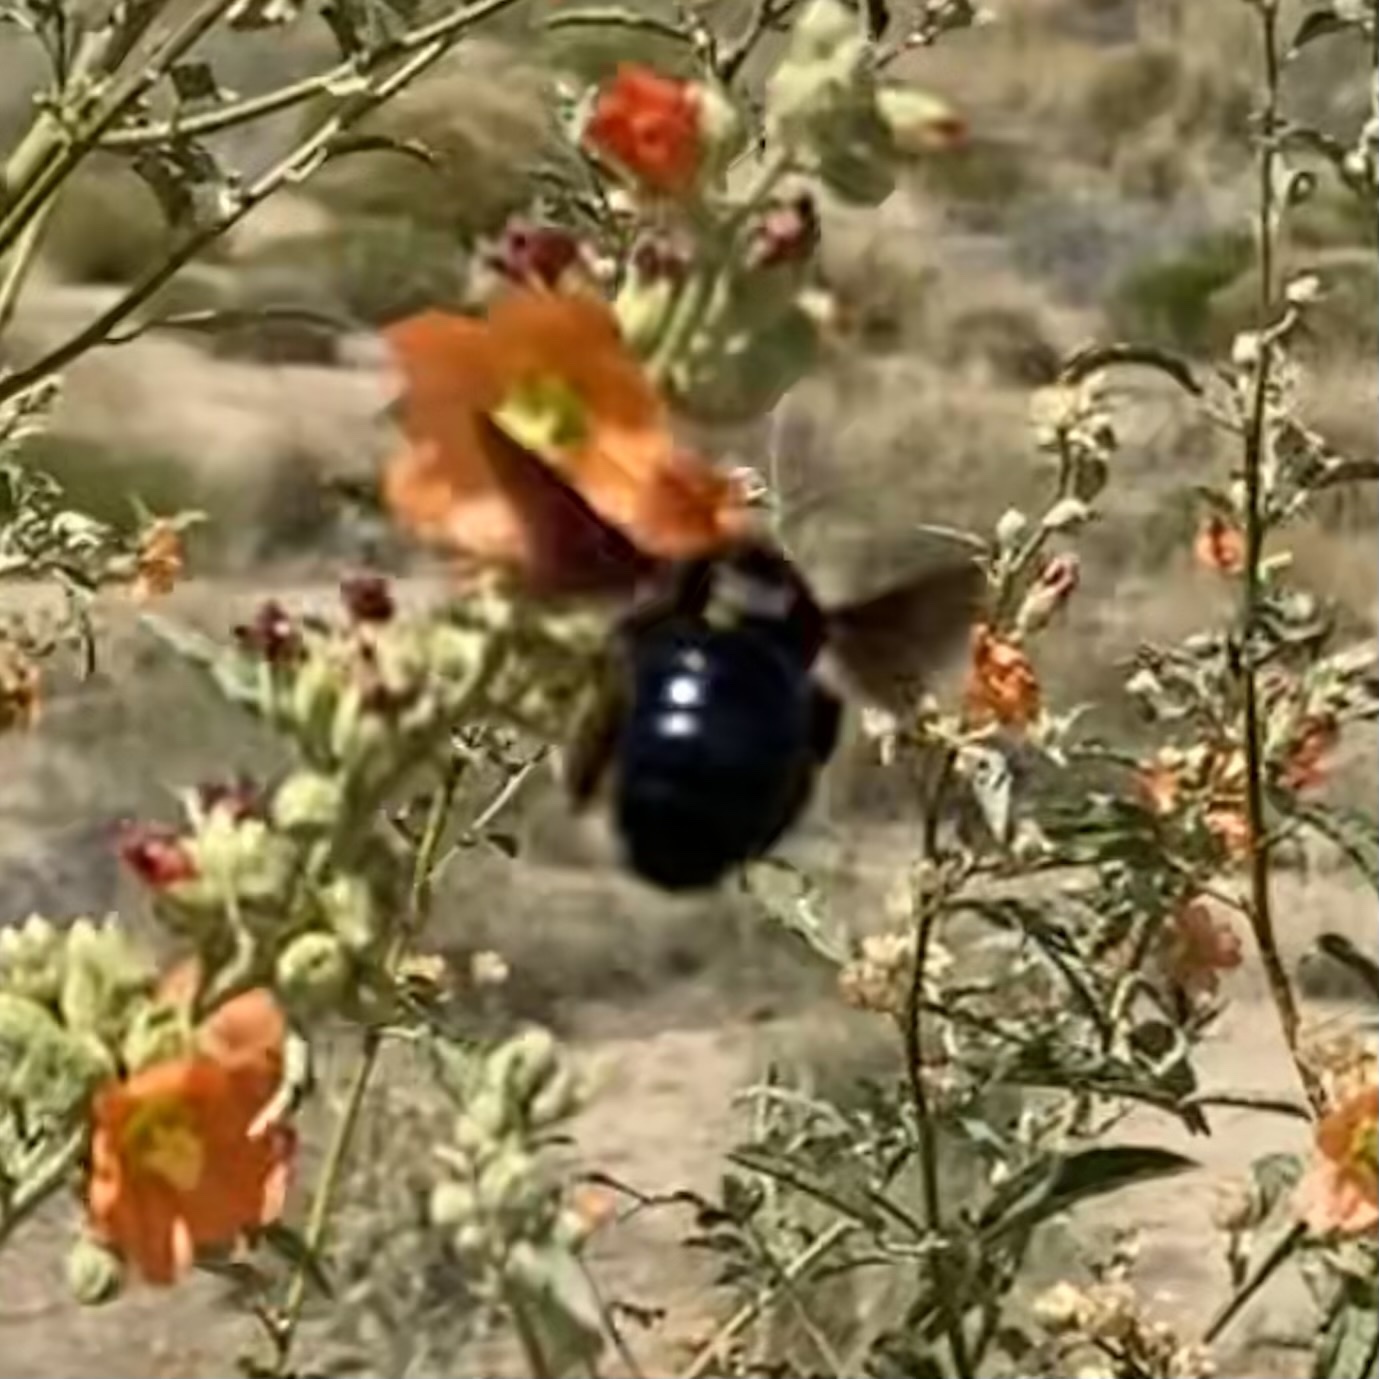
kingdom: Animalia
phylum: Arthropoda
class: Insecta
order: Hymenoptera
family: Apidae
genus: Xylocopa
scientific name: Xylocopa californica
